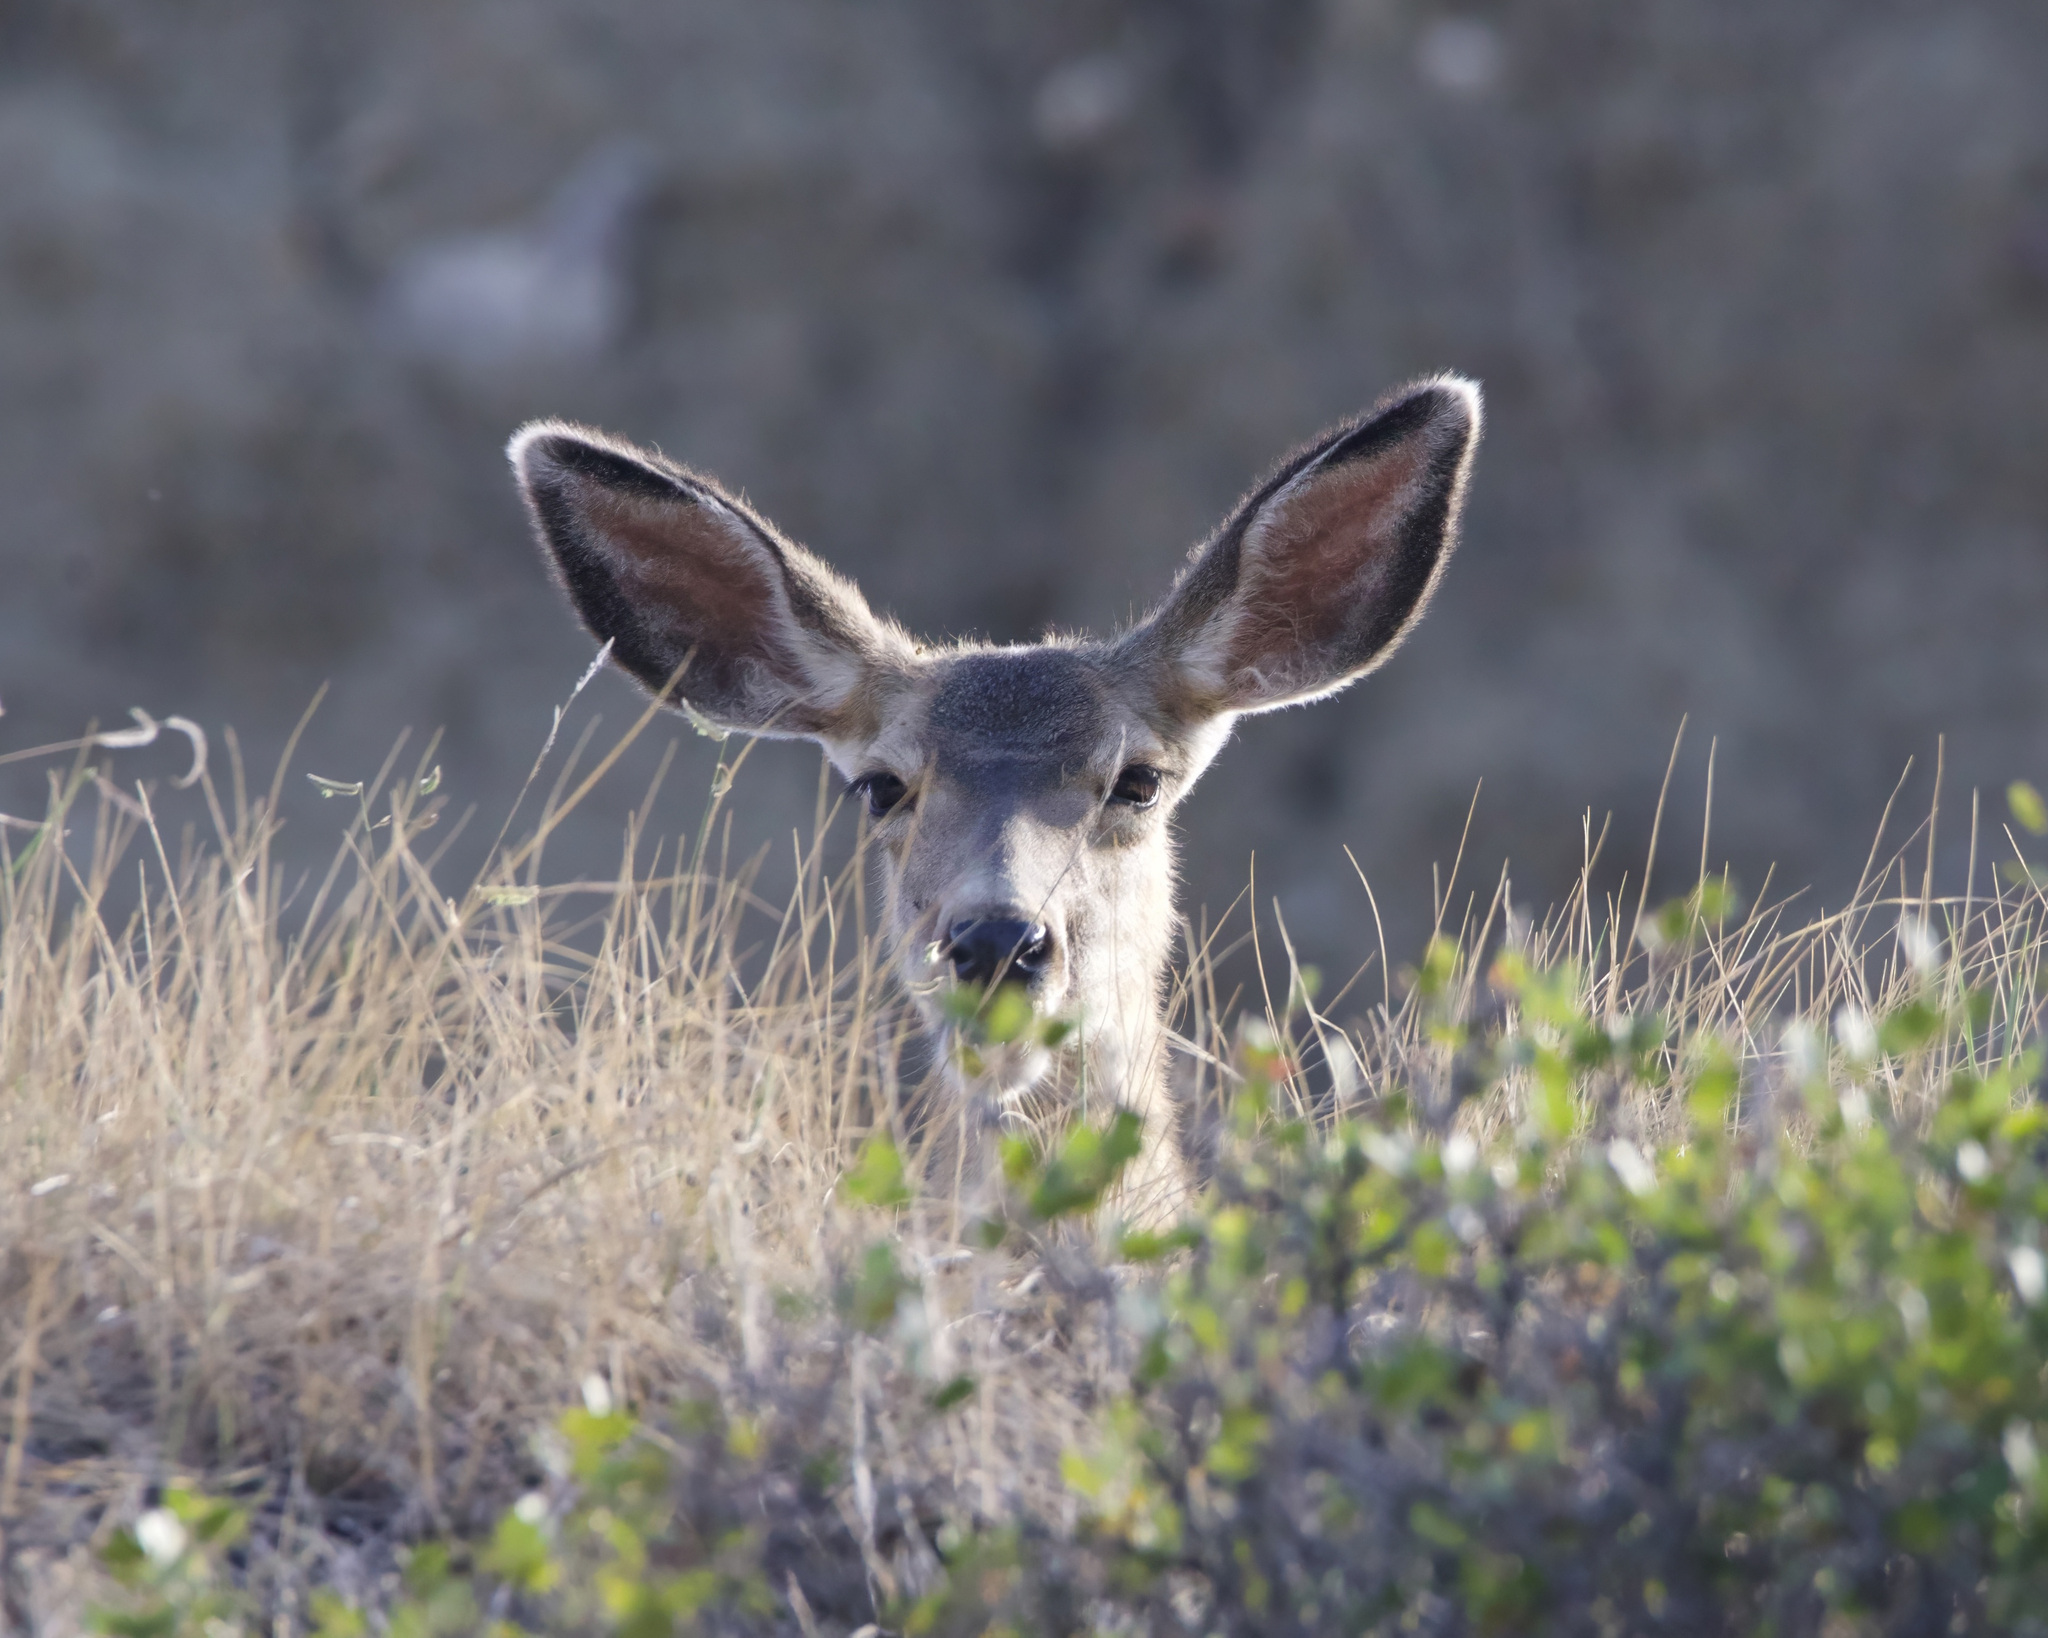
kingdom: Animalia
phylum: Chordata
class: Mammalia
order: Artiodactyla
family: Cervidae
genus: Odocoileus
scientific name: Odocoileus hemionus
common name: Mule deer
